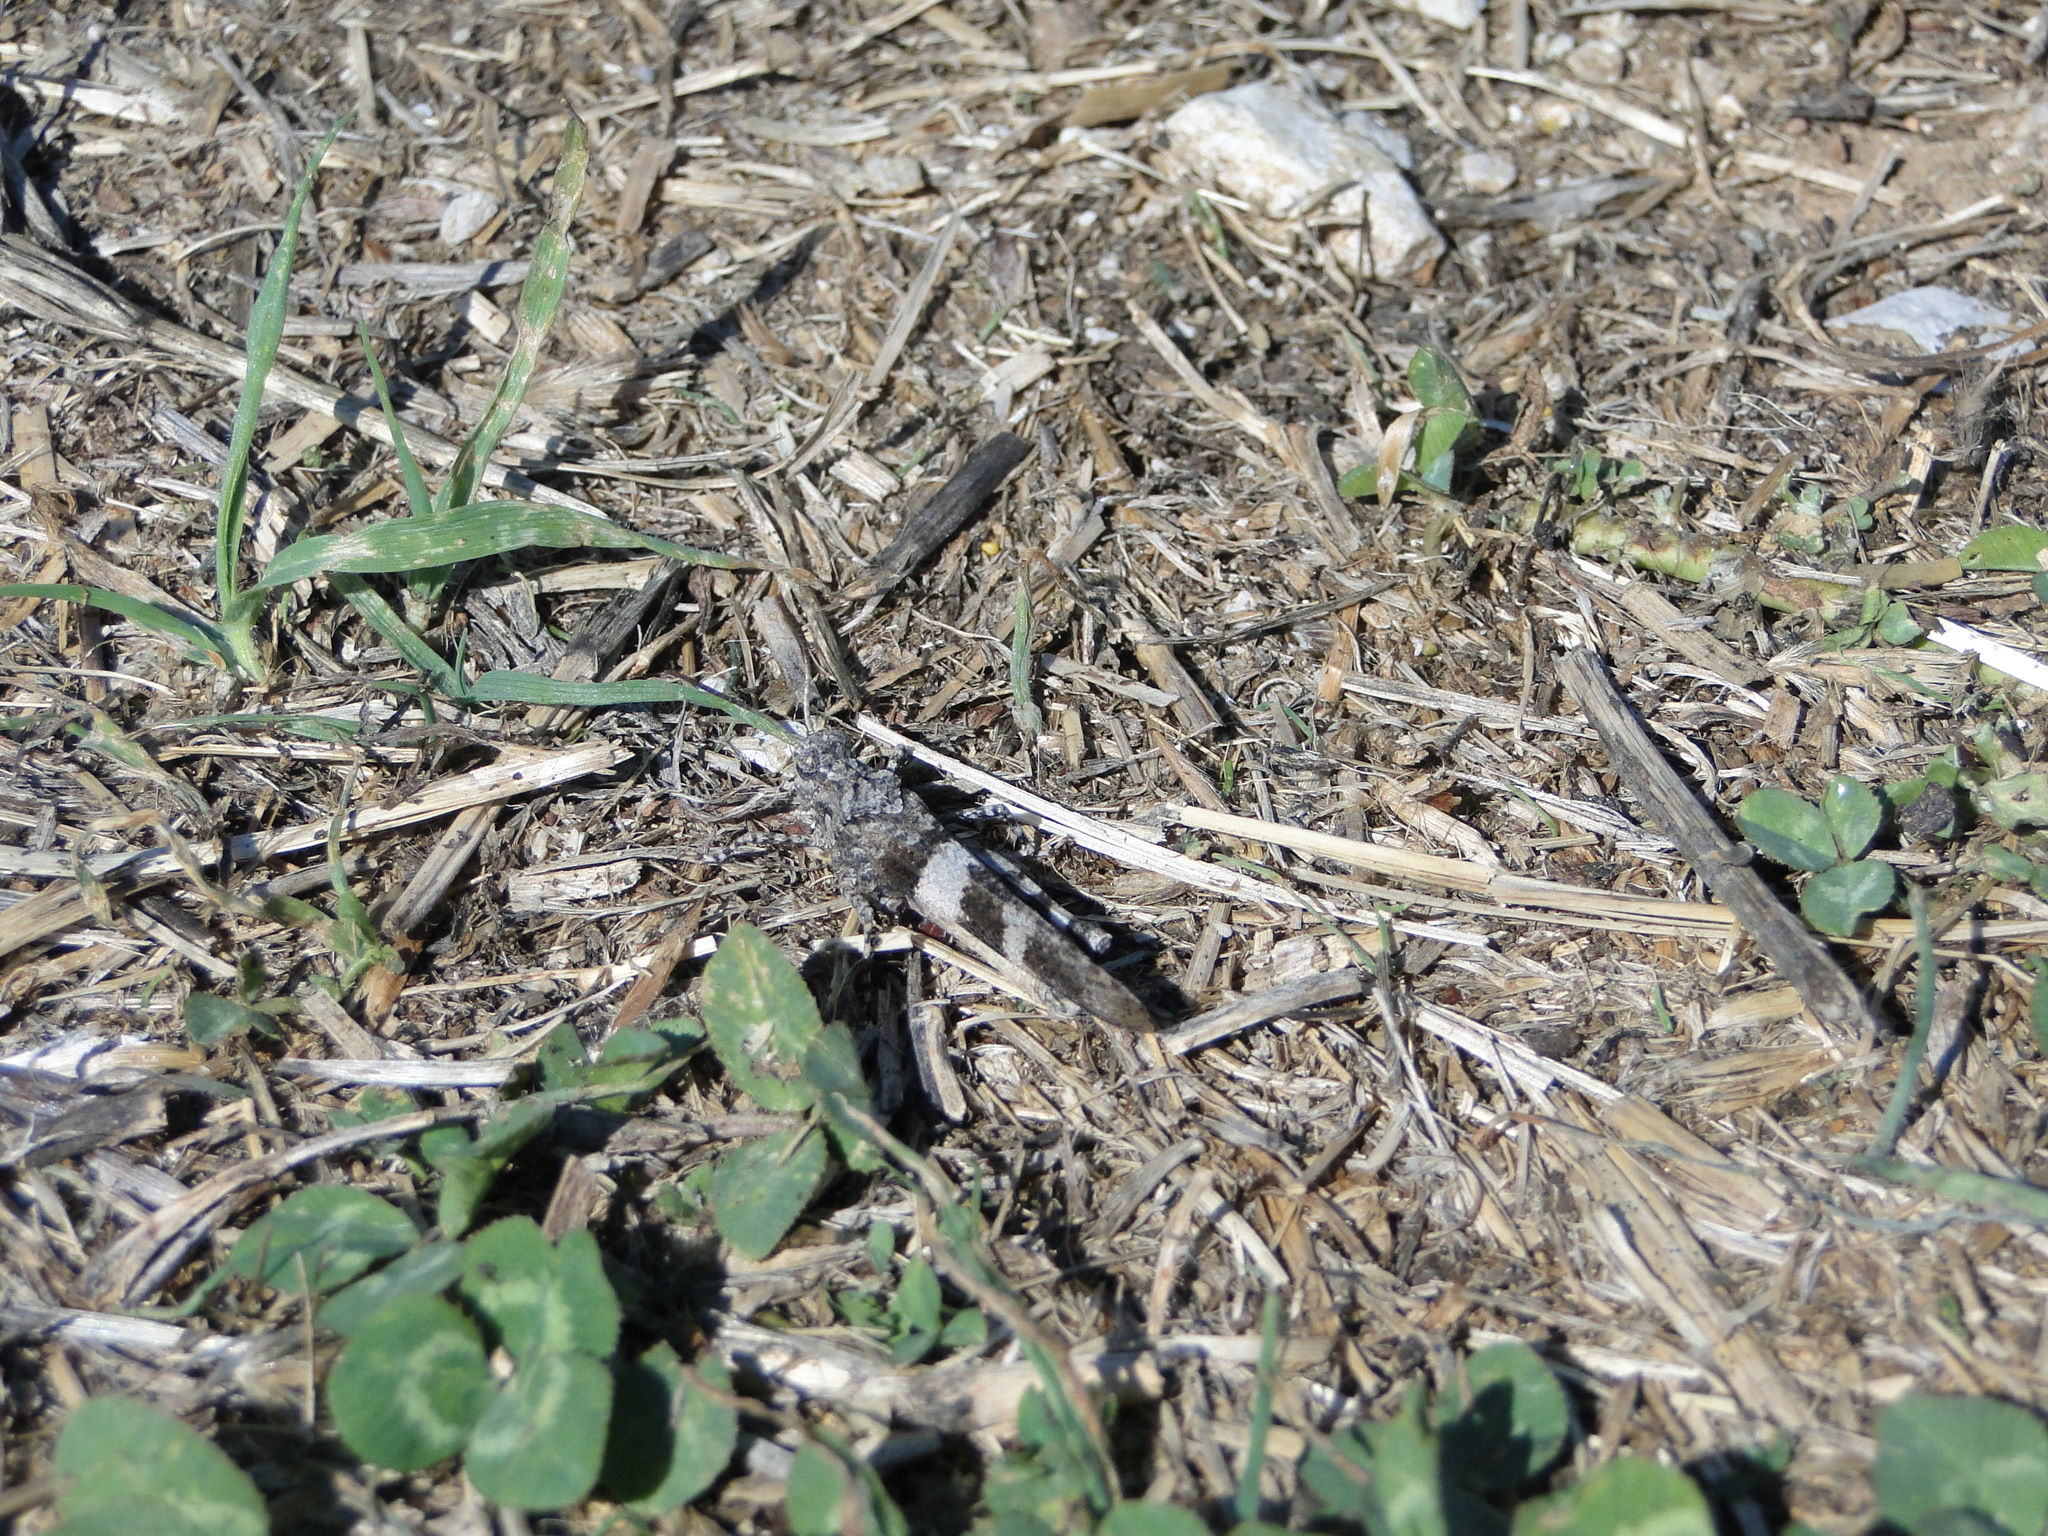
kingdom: Animalia
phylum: Arthropoda
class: Insecta
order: Orthoptera
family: Acrididae
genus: Oedipoda
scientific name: Oedipoda caerulescens
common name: Blue-winged grasshopper
